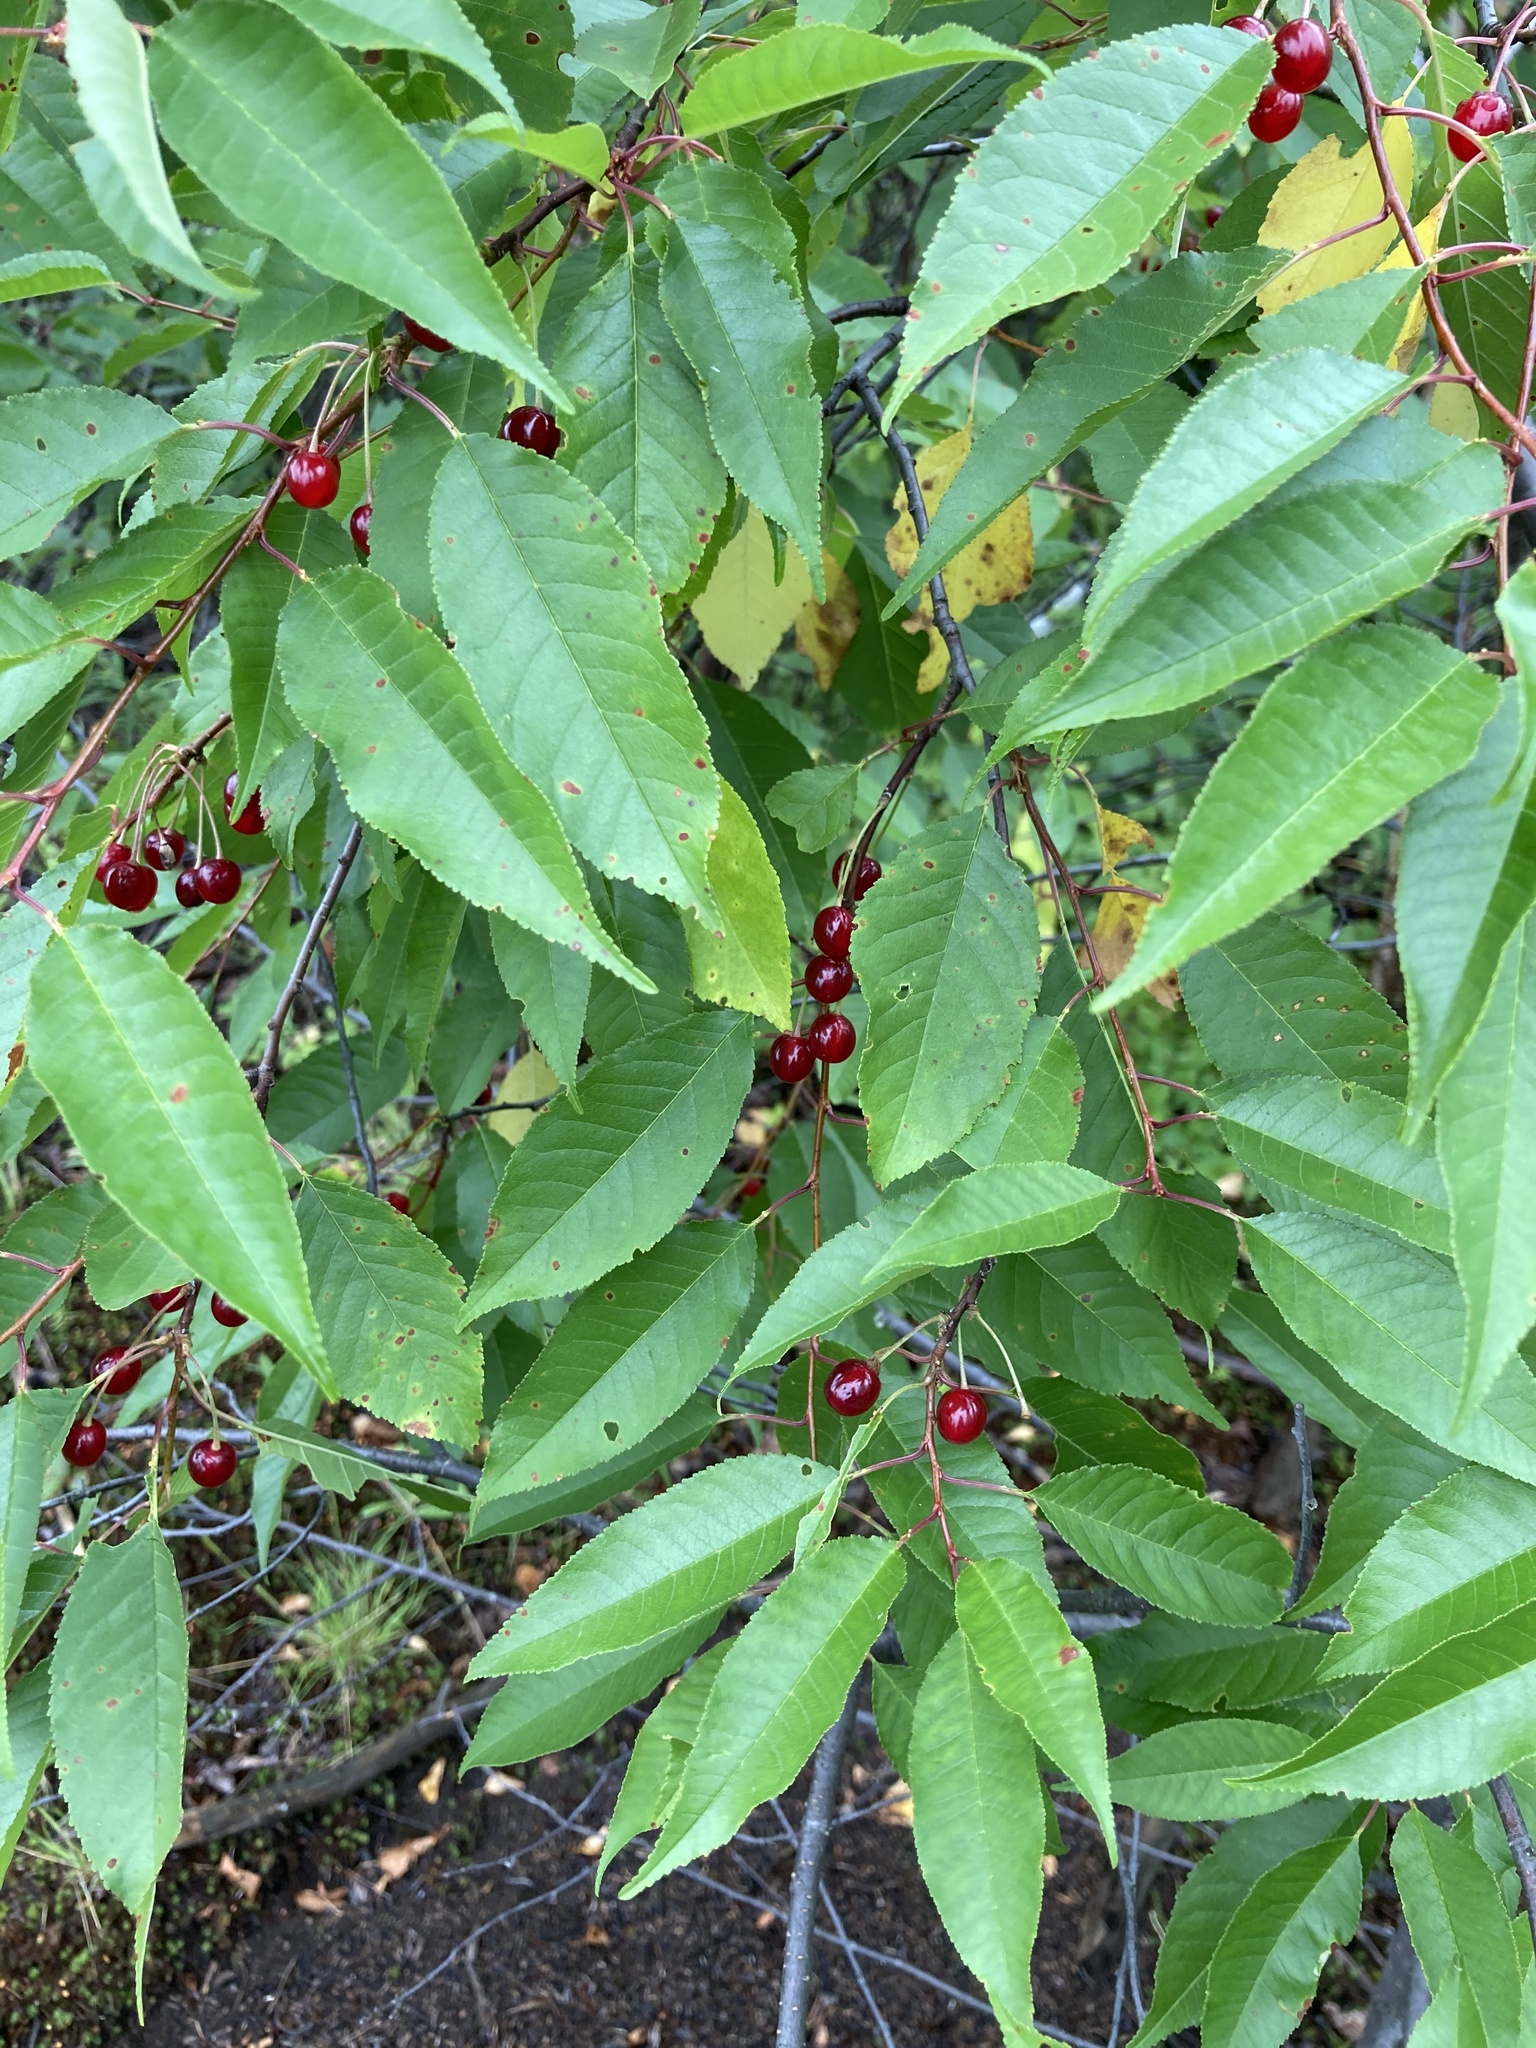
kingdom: Plantae
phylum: Tracheophyta
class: Magnoliopsida
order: Rosales
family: Rosaceae
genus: Prunus
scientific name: Prunus pensylvanica
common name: Pin cherry
